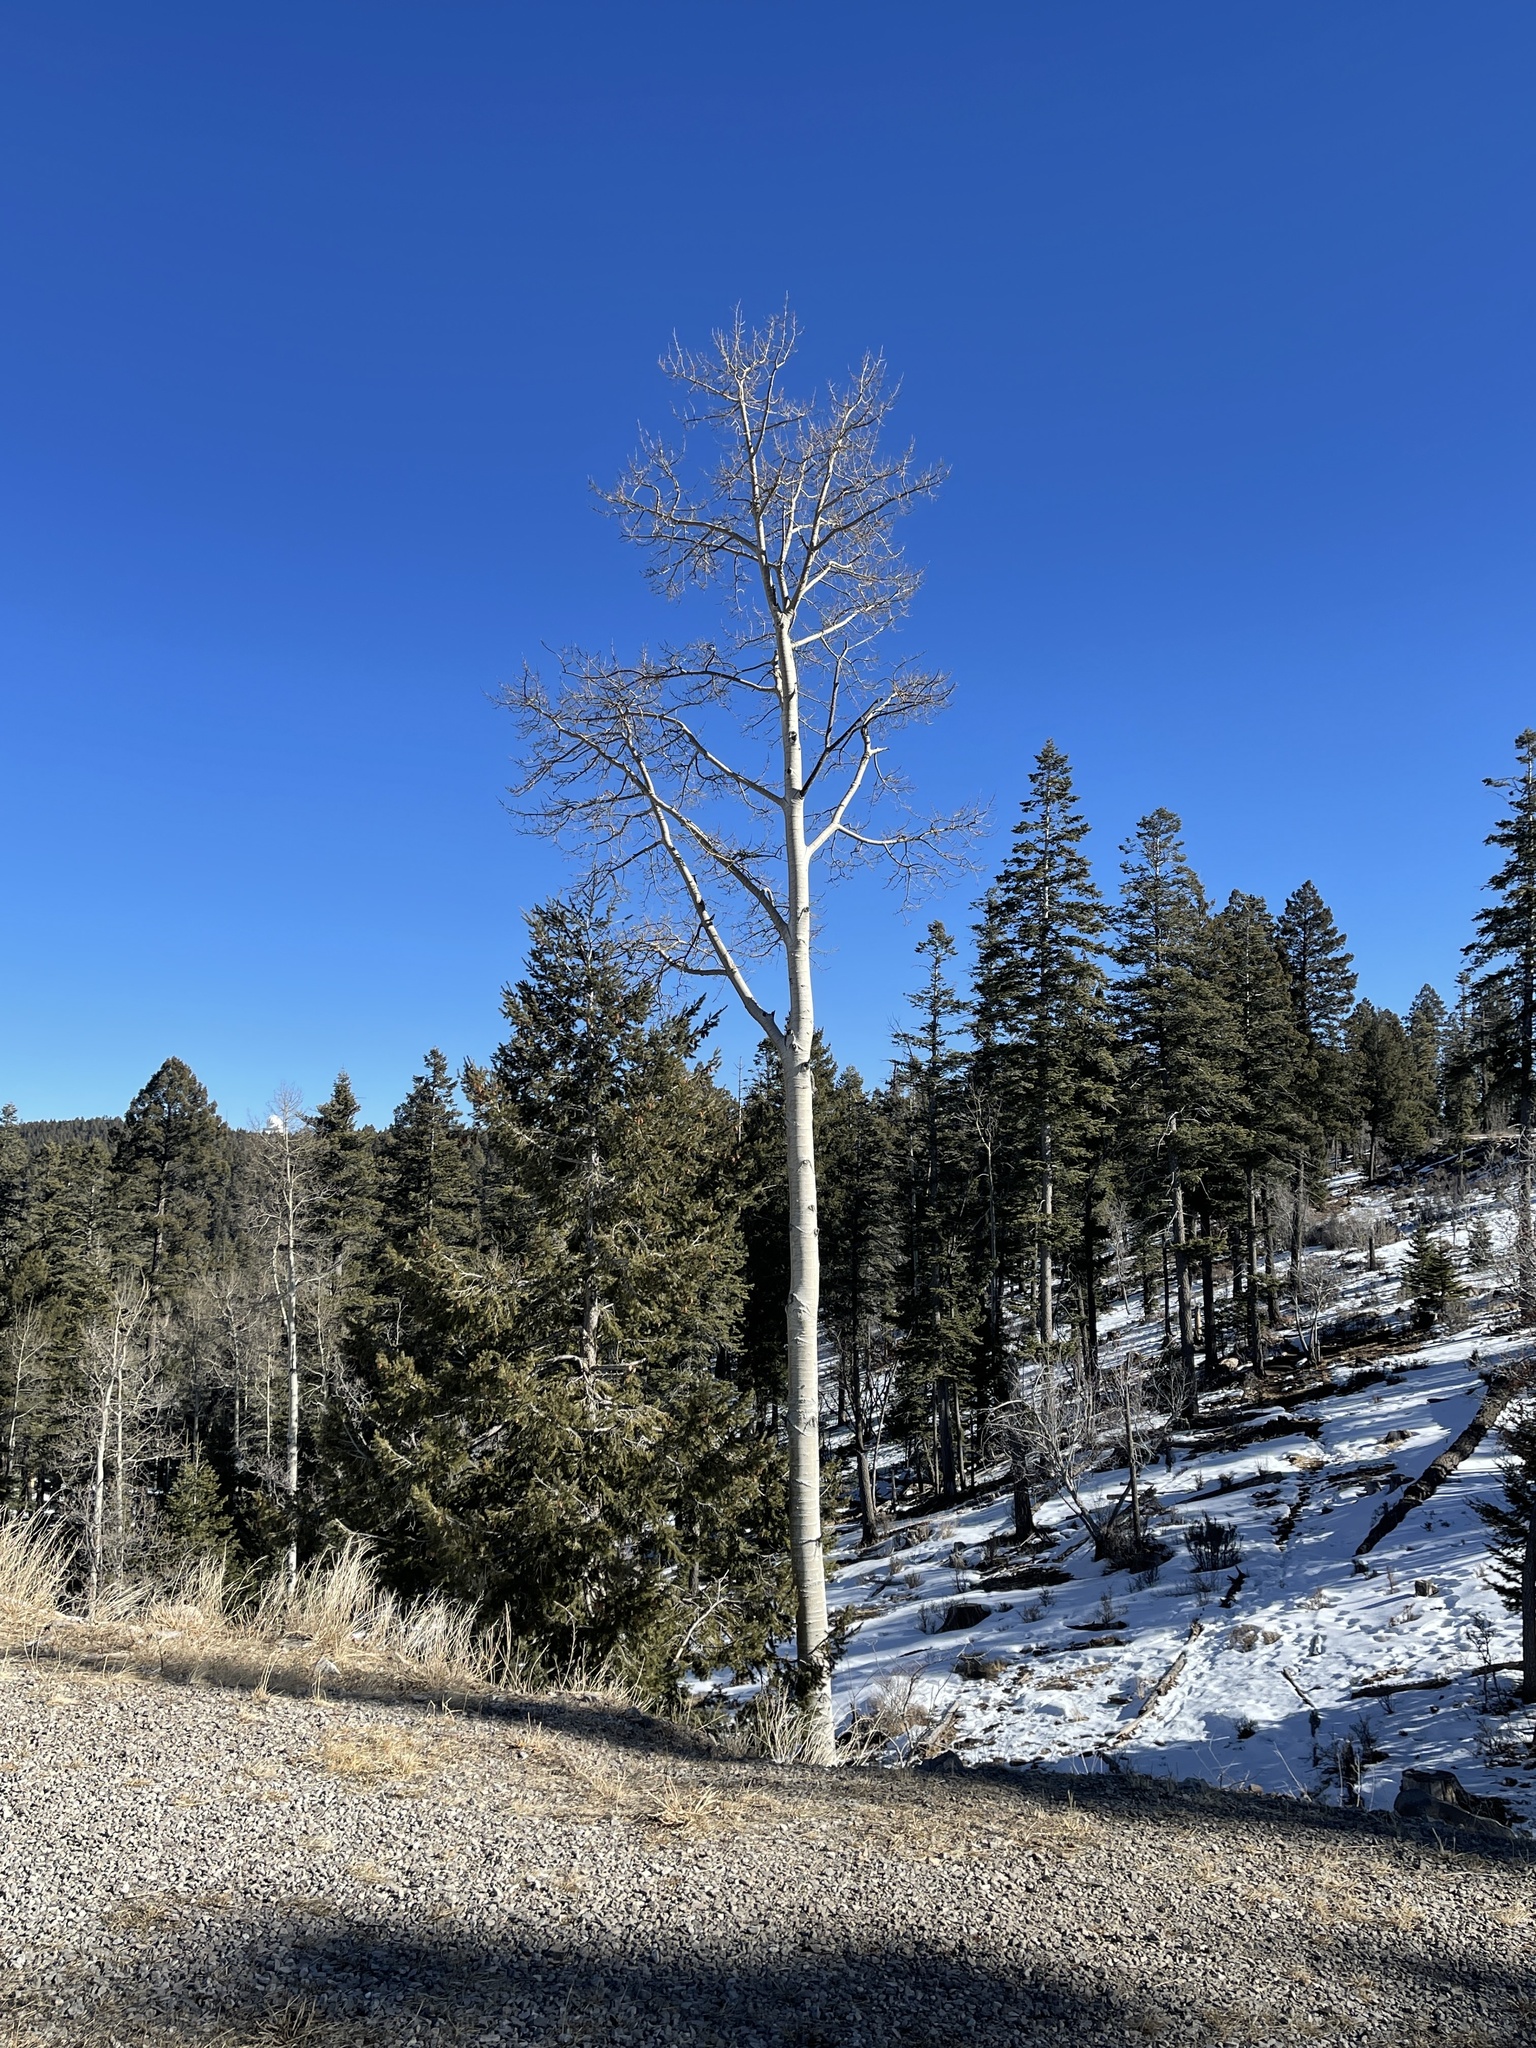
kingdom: Plantae
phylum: Tracheophyta
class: Magnoliopsida
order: Malpighiales
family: Salicaceae
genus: Populus
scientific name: Populus tremuloides
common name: Quaking aspen
